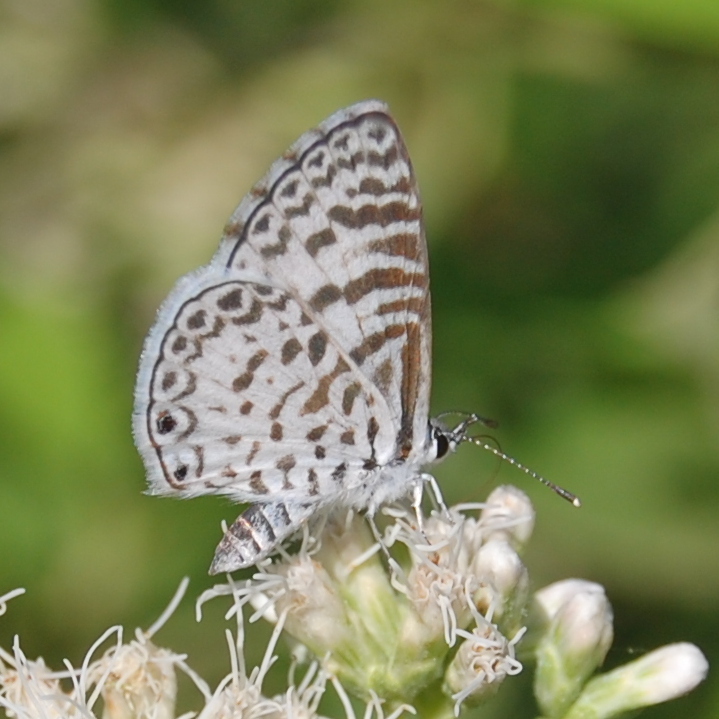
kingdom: Animalia
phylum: Arthropoda
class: Insecta
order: Lepidoptera
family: Lycaenidae
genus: Leptotes
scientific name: Leptotes cassius
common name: Cassius blue
